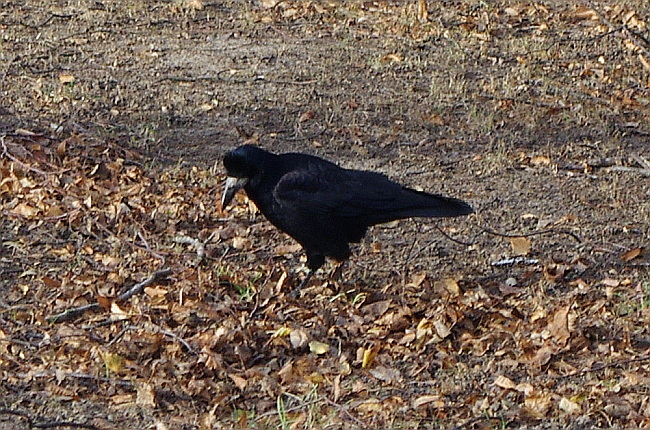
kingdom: Animalia
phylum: Chordata
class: Aves
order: Passeriformes
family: Corvidae
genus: Corvus
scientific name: Corvus frugilegus
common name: Rook
